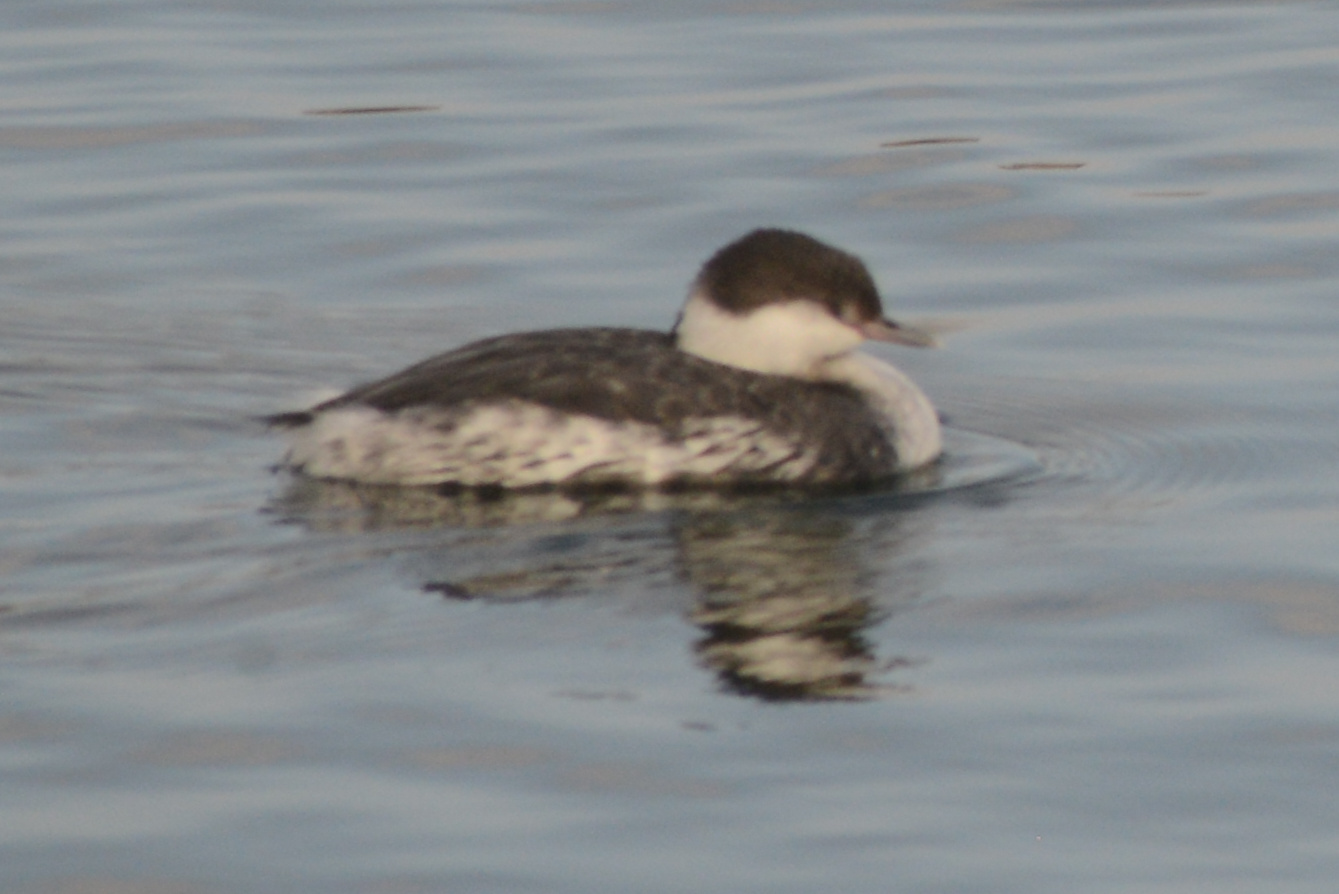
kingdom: Animalia
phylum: Chordata
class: Aves
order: Podicipediformes
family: Podicipedidae
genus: Podiceps
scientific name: Podiceps auritus
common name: Horned grebe
